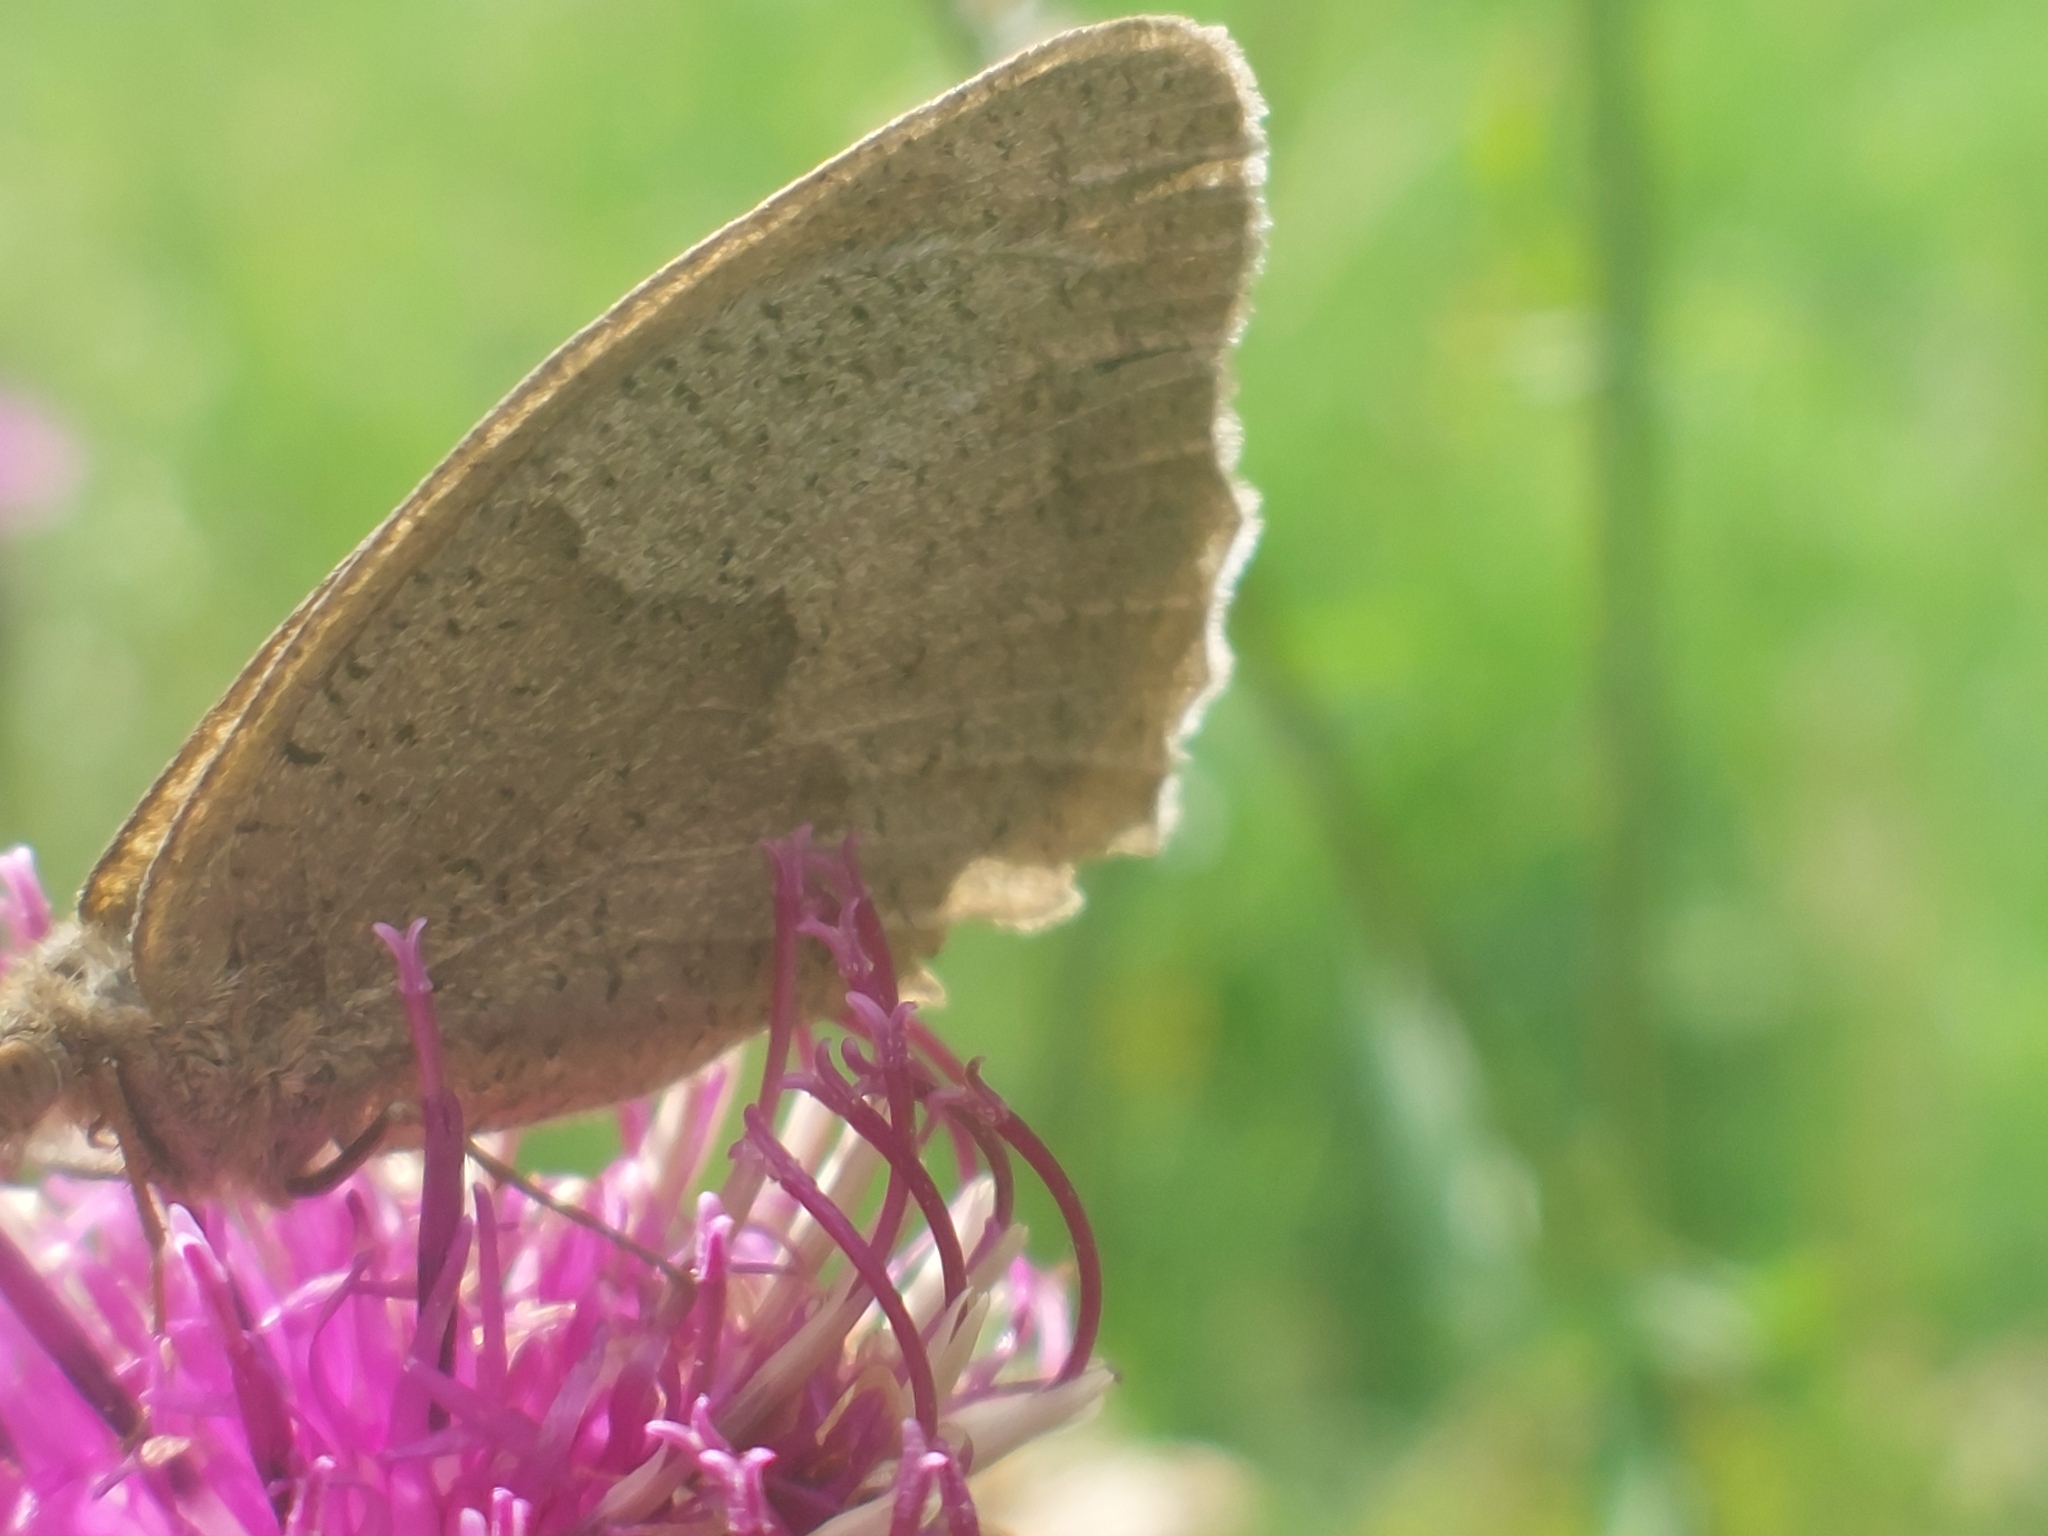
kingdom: Animalia
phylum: Arthropoda
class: Insecta
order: Lepidoptera
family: Nymphalidae
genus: Maniola
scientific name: Maniola jurtina
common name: Meadow brown
